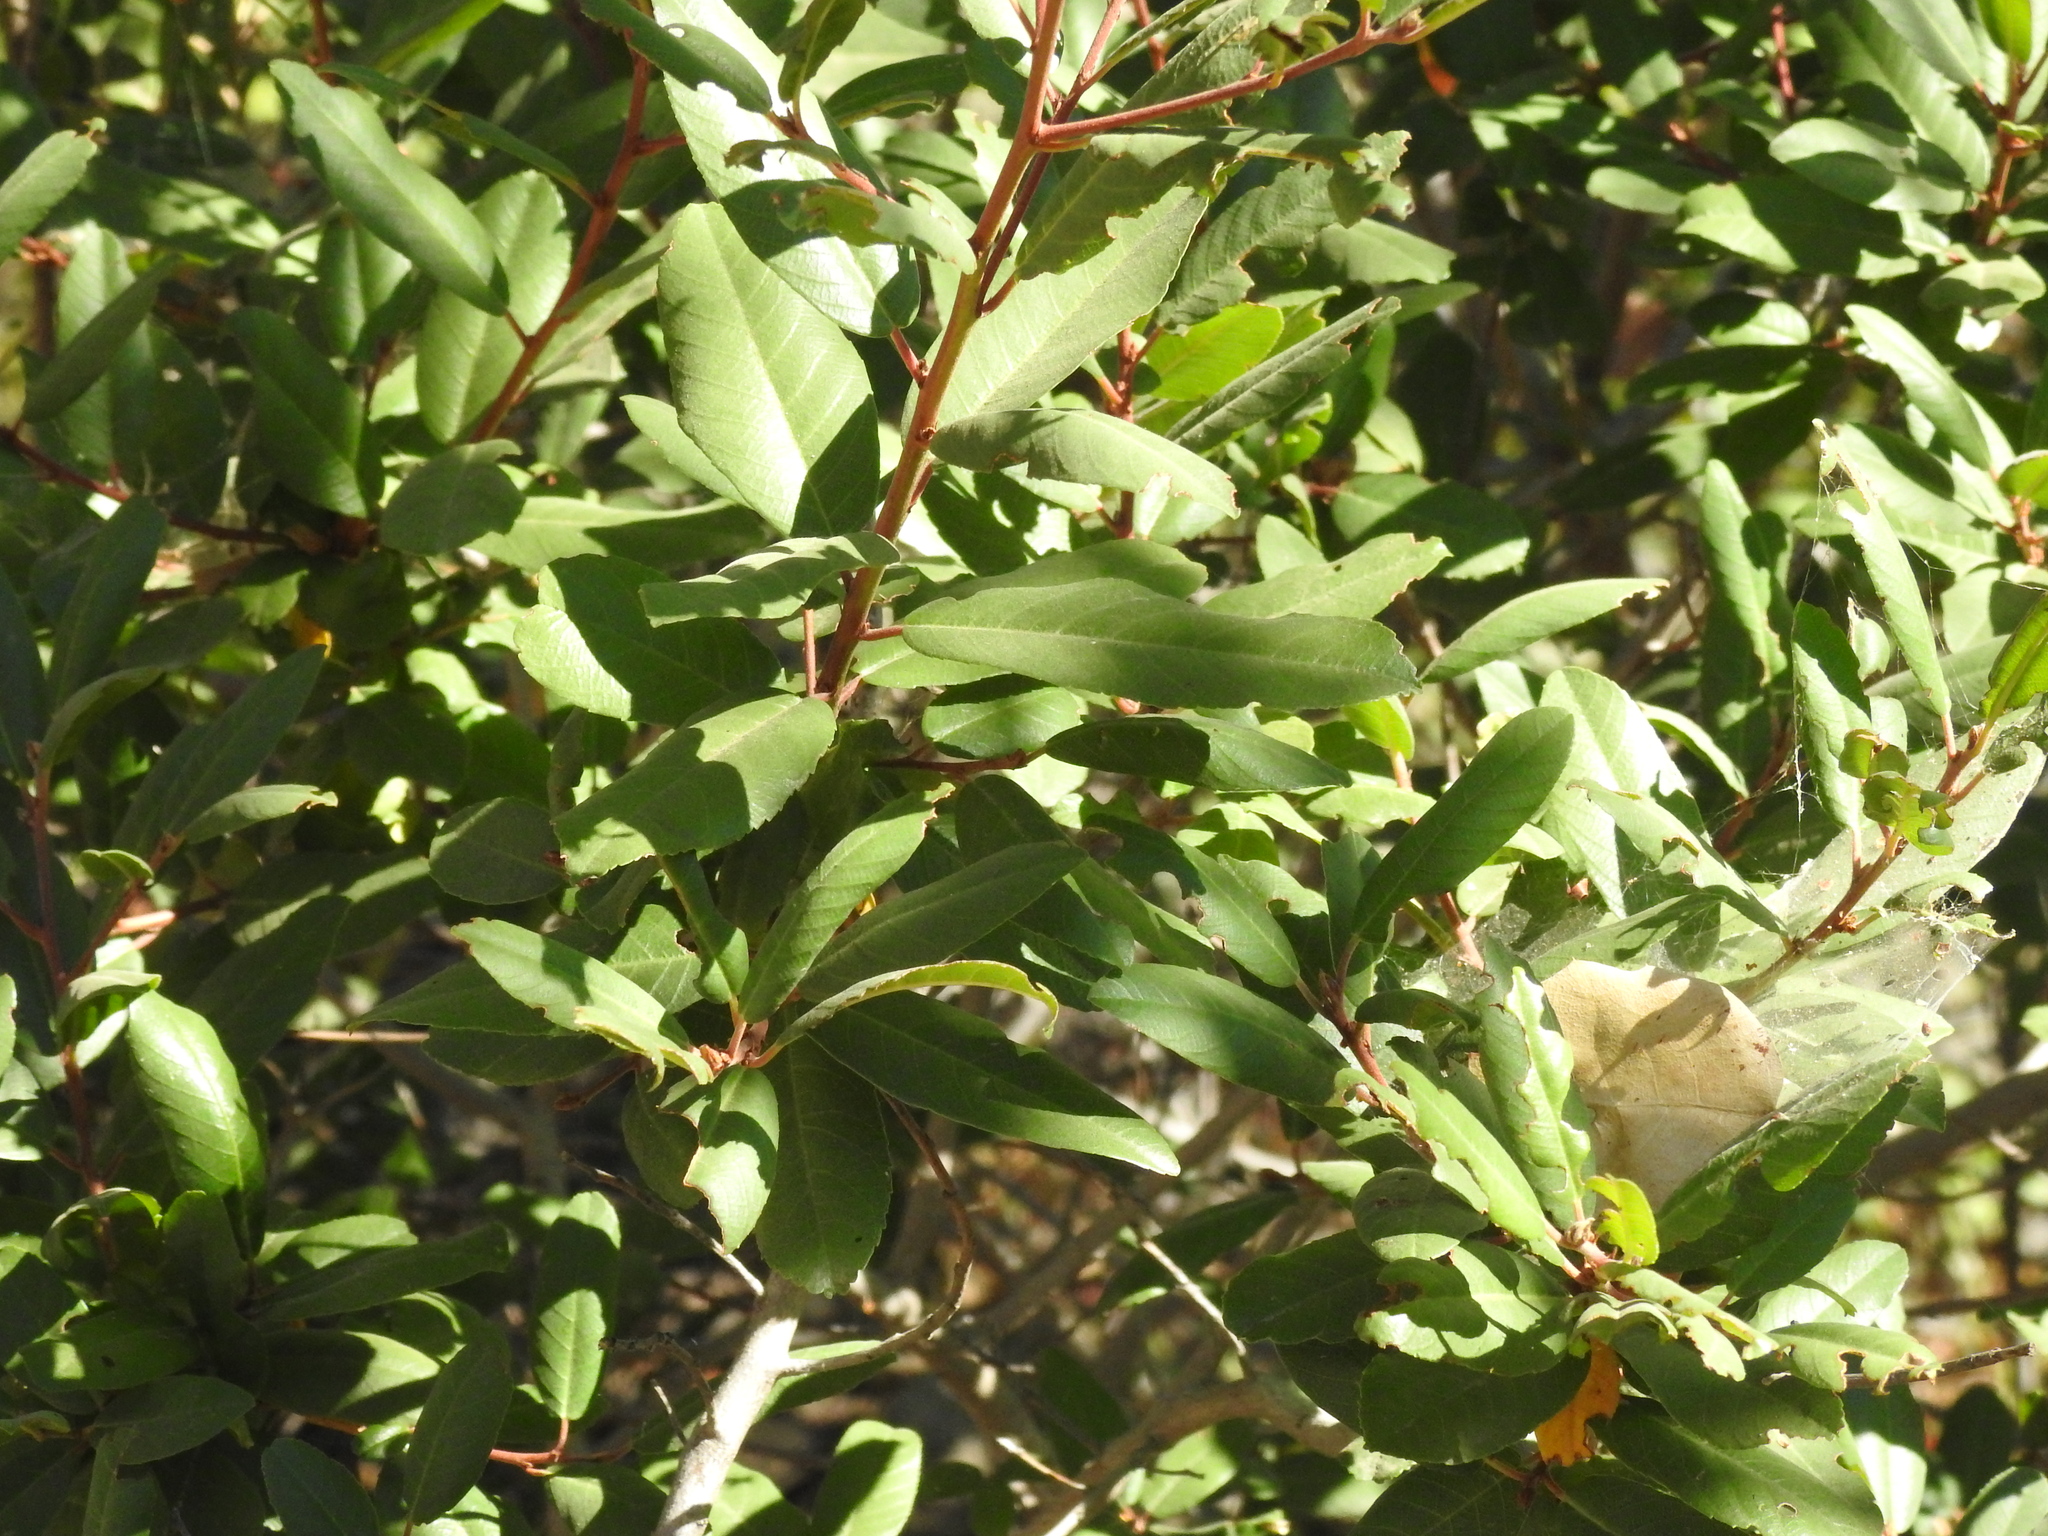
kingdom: Plantae
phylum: Tracheophyta
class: Magnoliopsida
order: Rosales
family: Rhamnaceae
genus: Frangula
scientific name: Frangula californica
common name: California buckthorn
